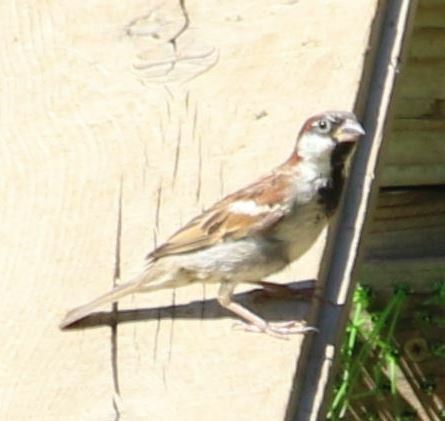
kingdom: Animalia
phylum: Chordata
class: Aves
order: Passeriformes
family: Passeridae
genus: Passer
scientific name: Passer domesticus
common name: House sparrow
